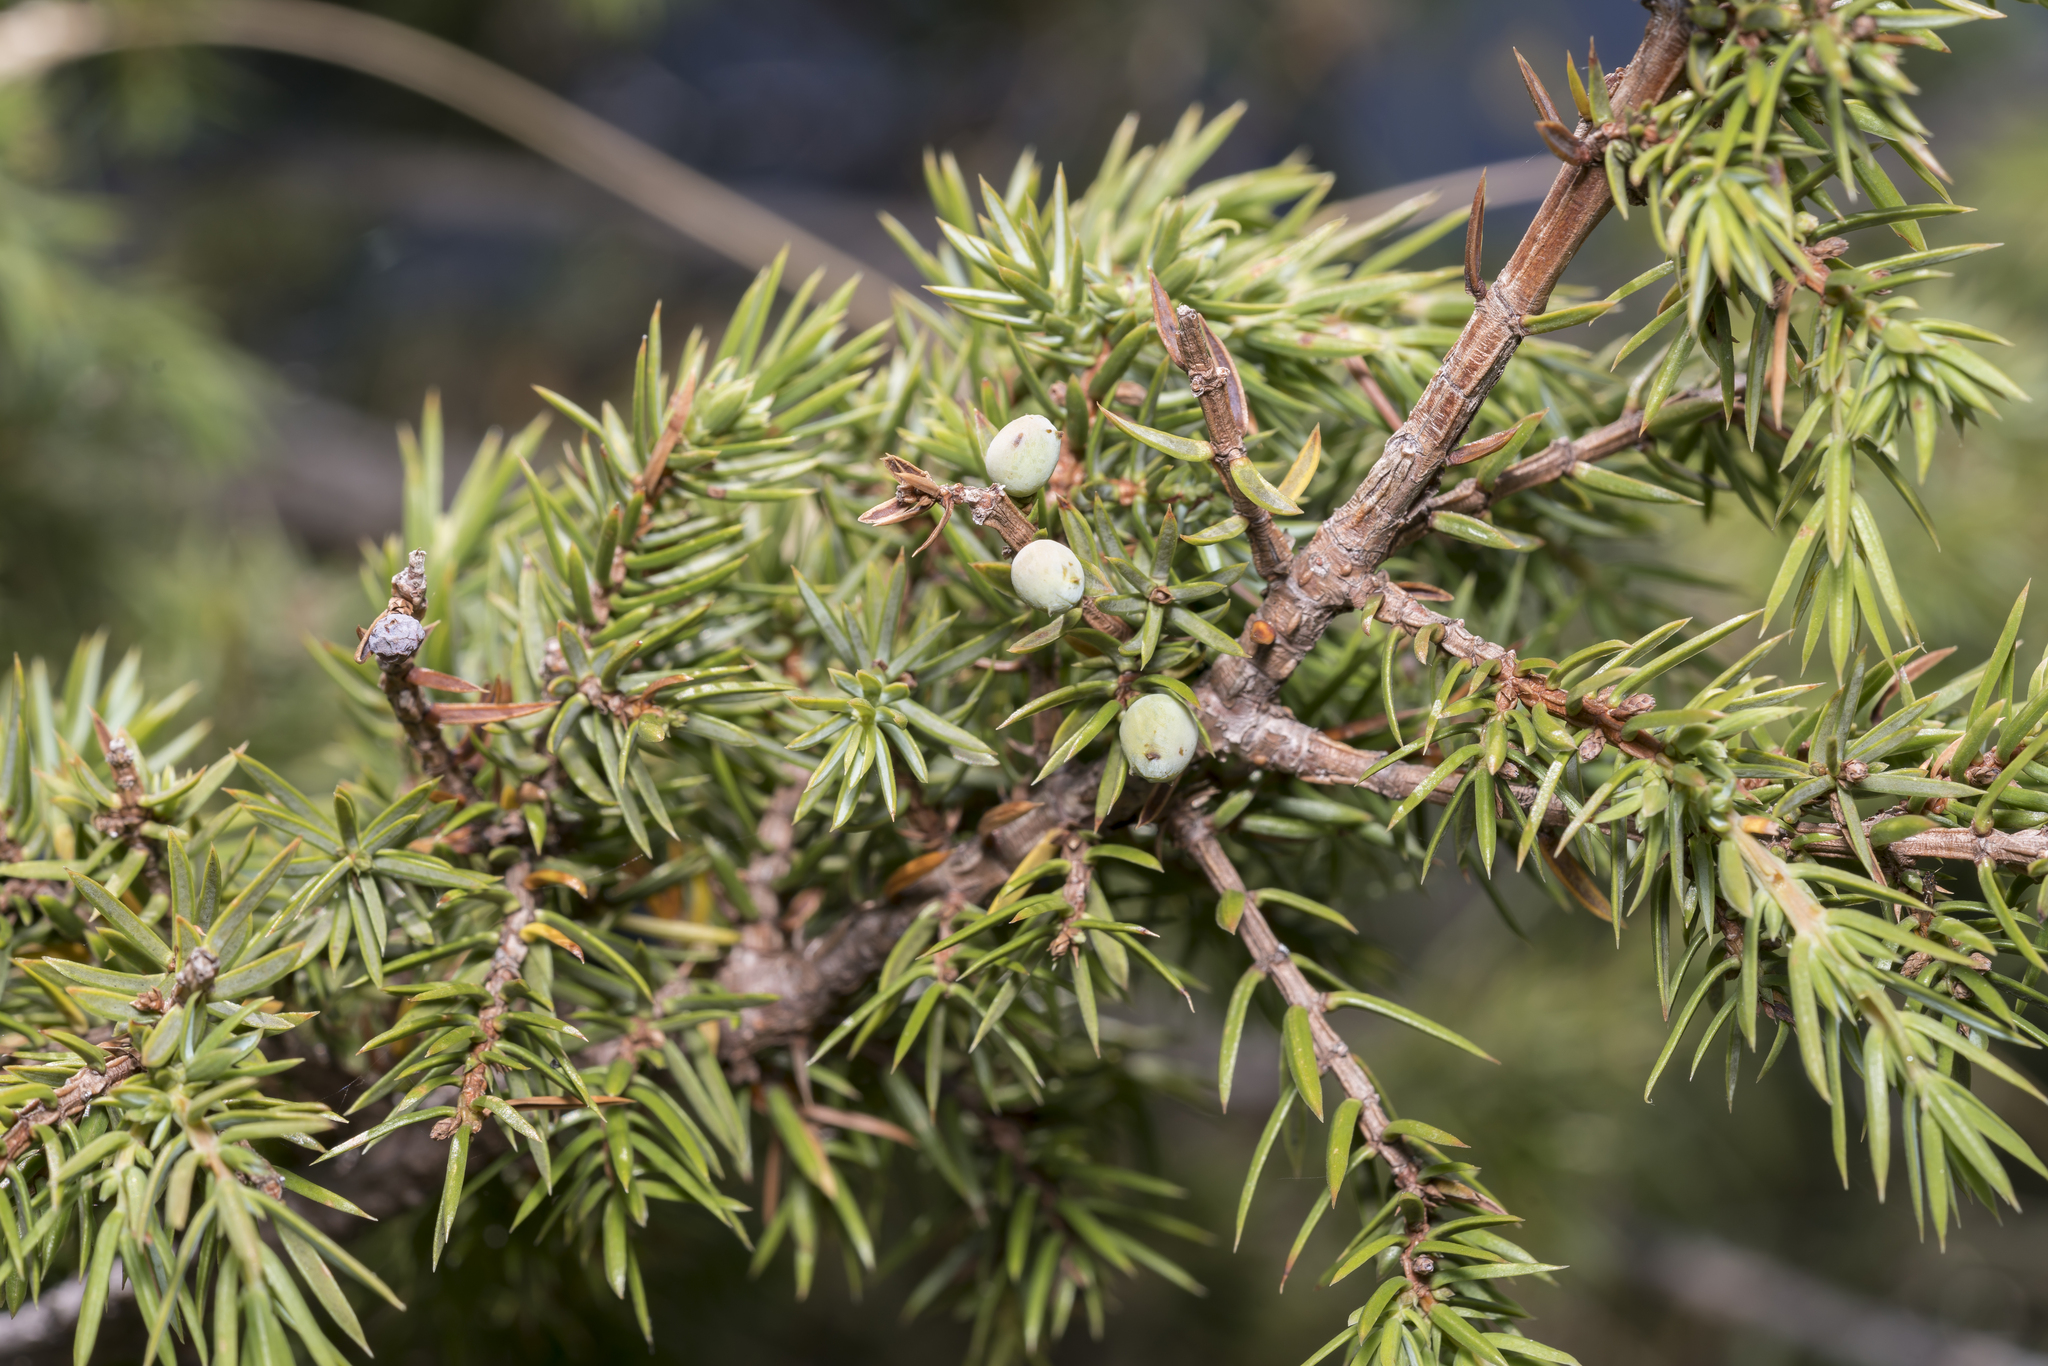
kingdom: Plantae
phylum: Tracheophyta
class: Pinopsida
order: Pinales
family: Cupressaceae
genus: Juniperus
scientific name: Juniperus communis
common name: Common juniper
